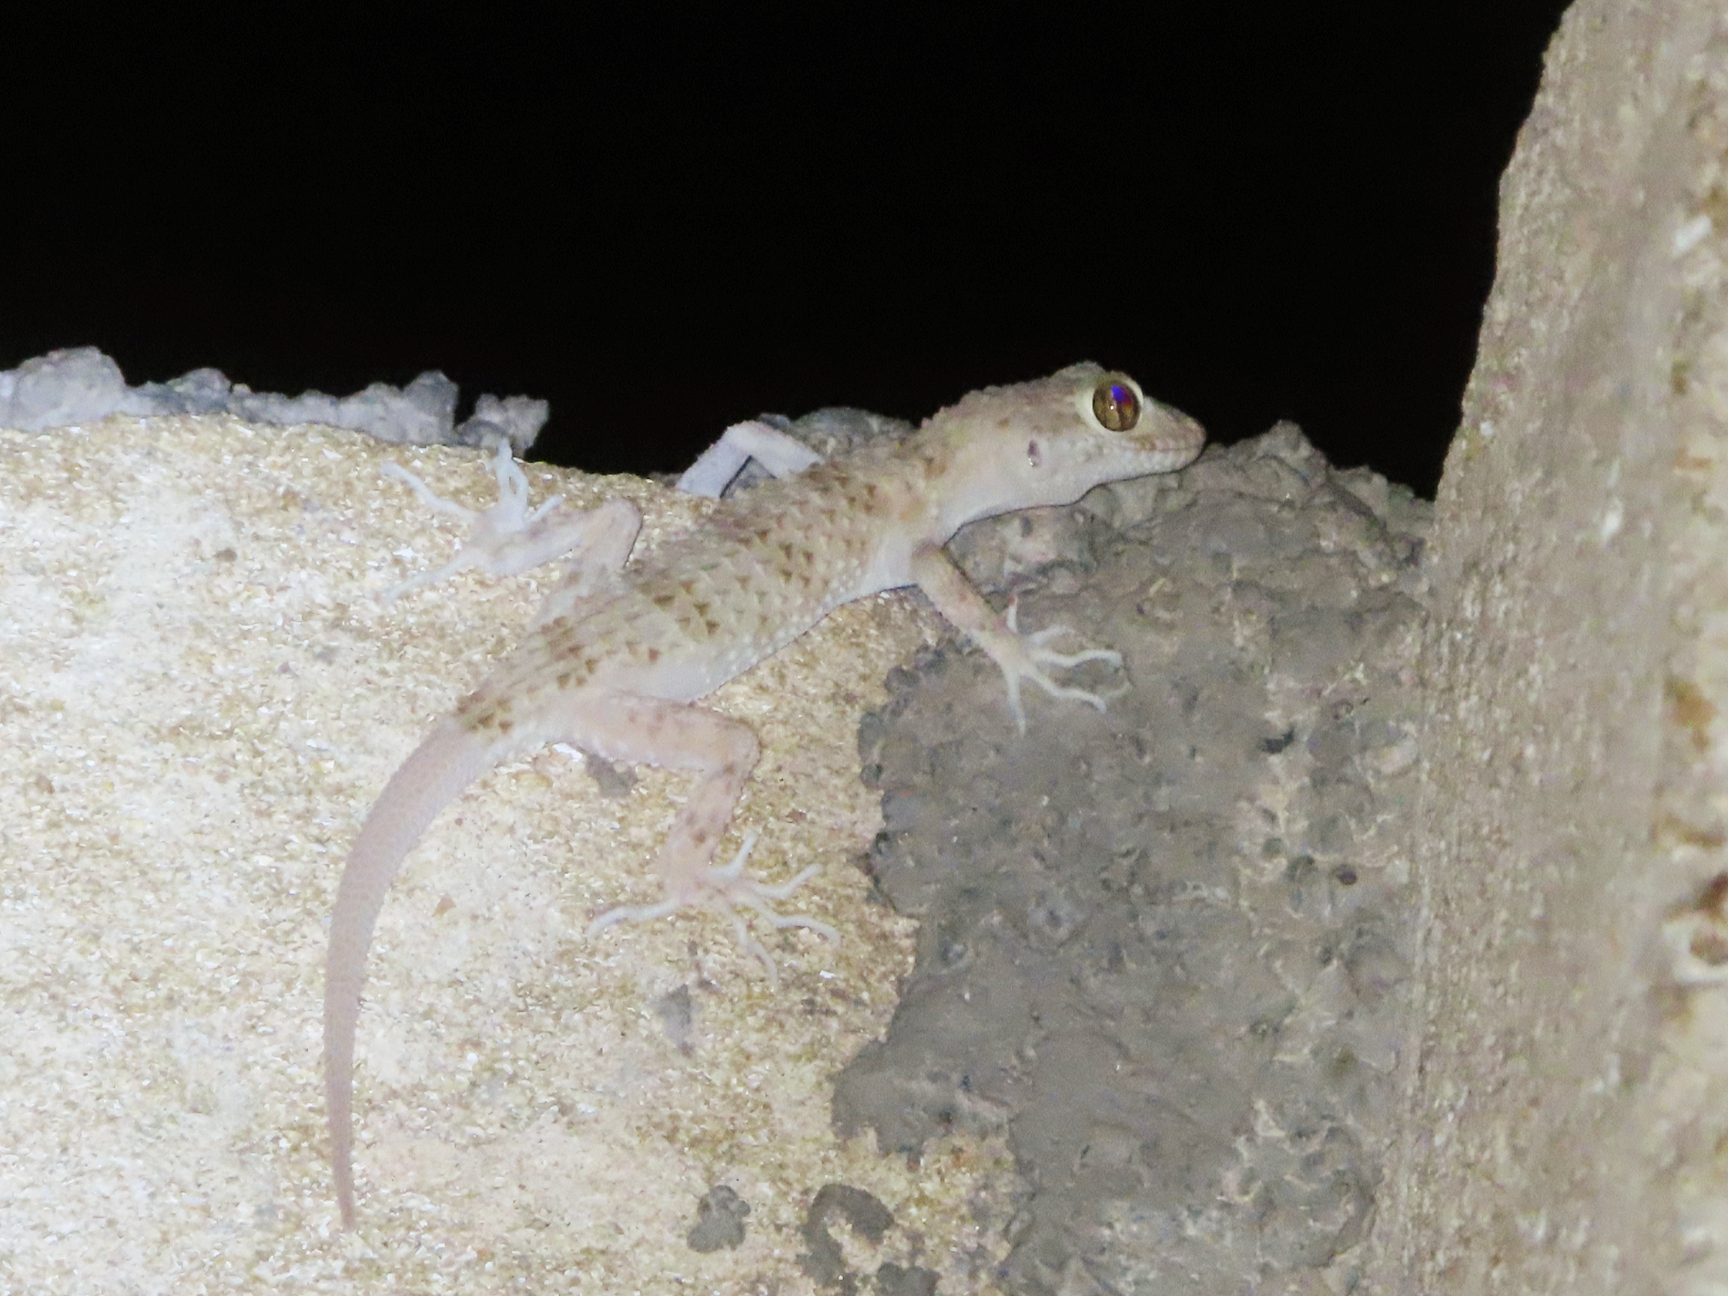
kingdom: Animalia
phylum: Chordata
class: Squamata
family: Gekkonidae
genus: Tenuidactylus
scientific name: Tenuidactylus caspius
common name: Caspian bent-toed gecko
